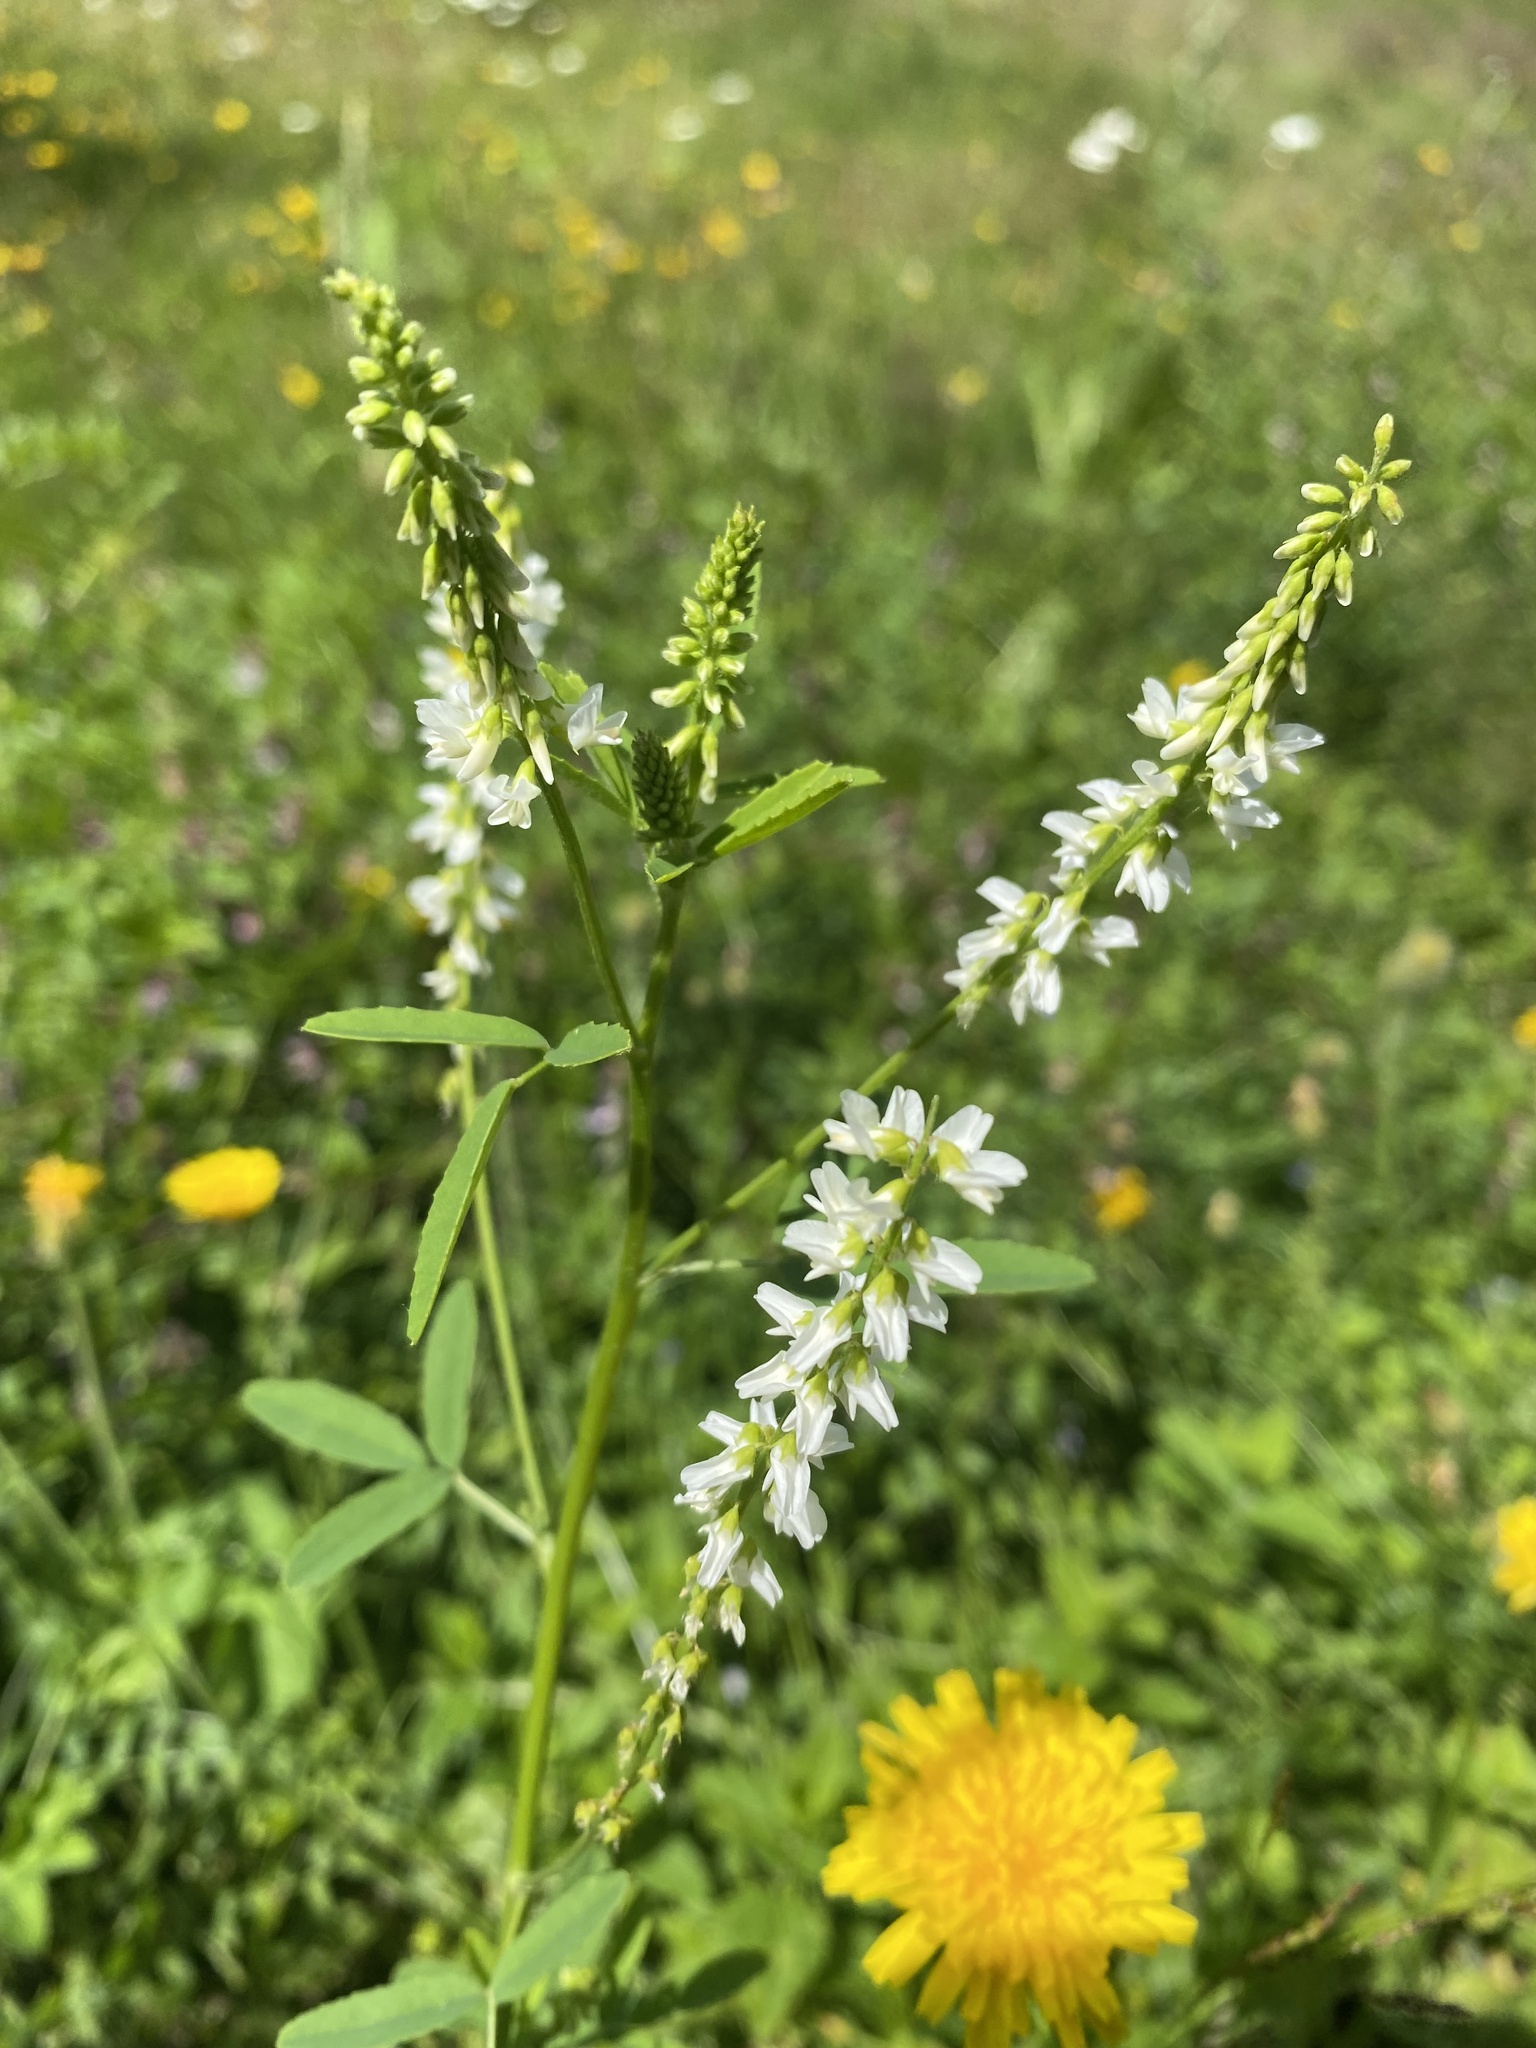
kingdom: Plantae
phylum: Tracheophyta
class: Magnoliopsida
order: Fabales
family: Fabaceae
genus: Melilotus
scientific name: Melilotus albus
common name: White melilot
